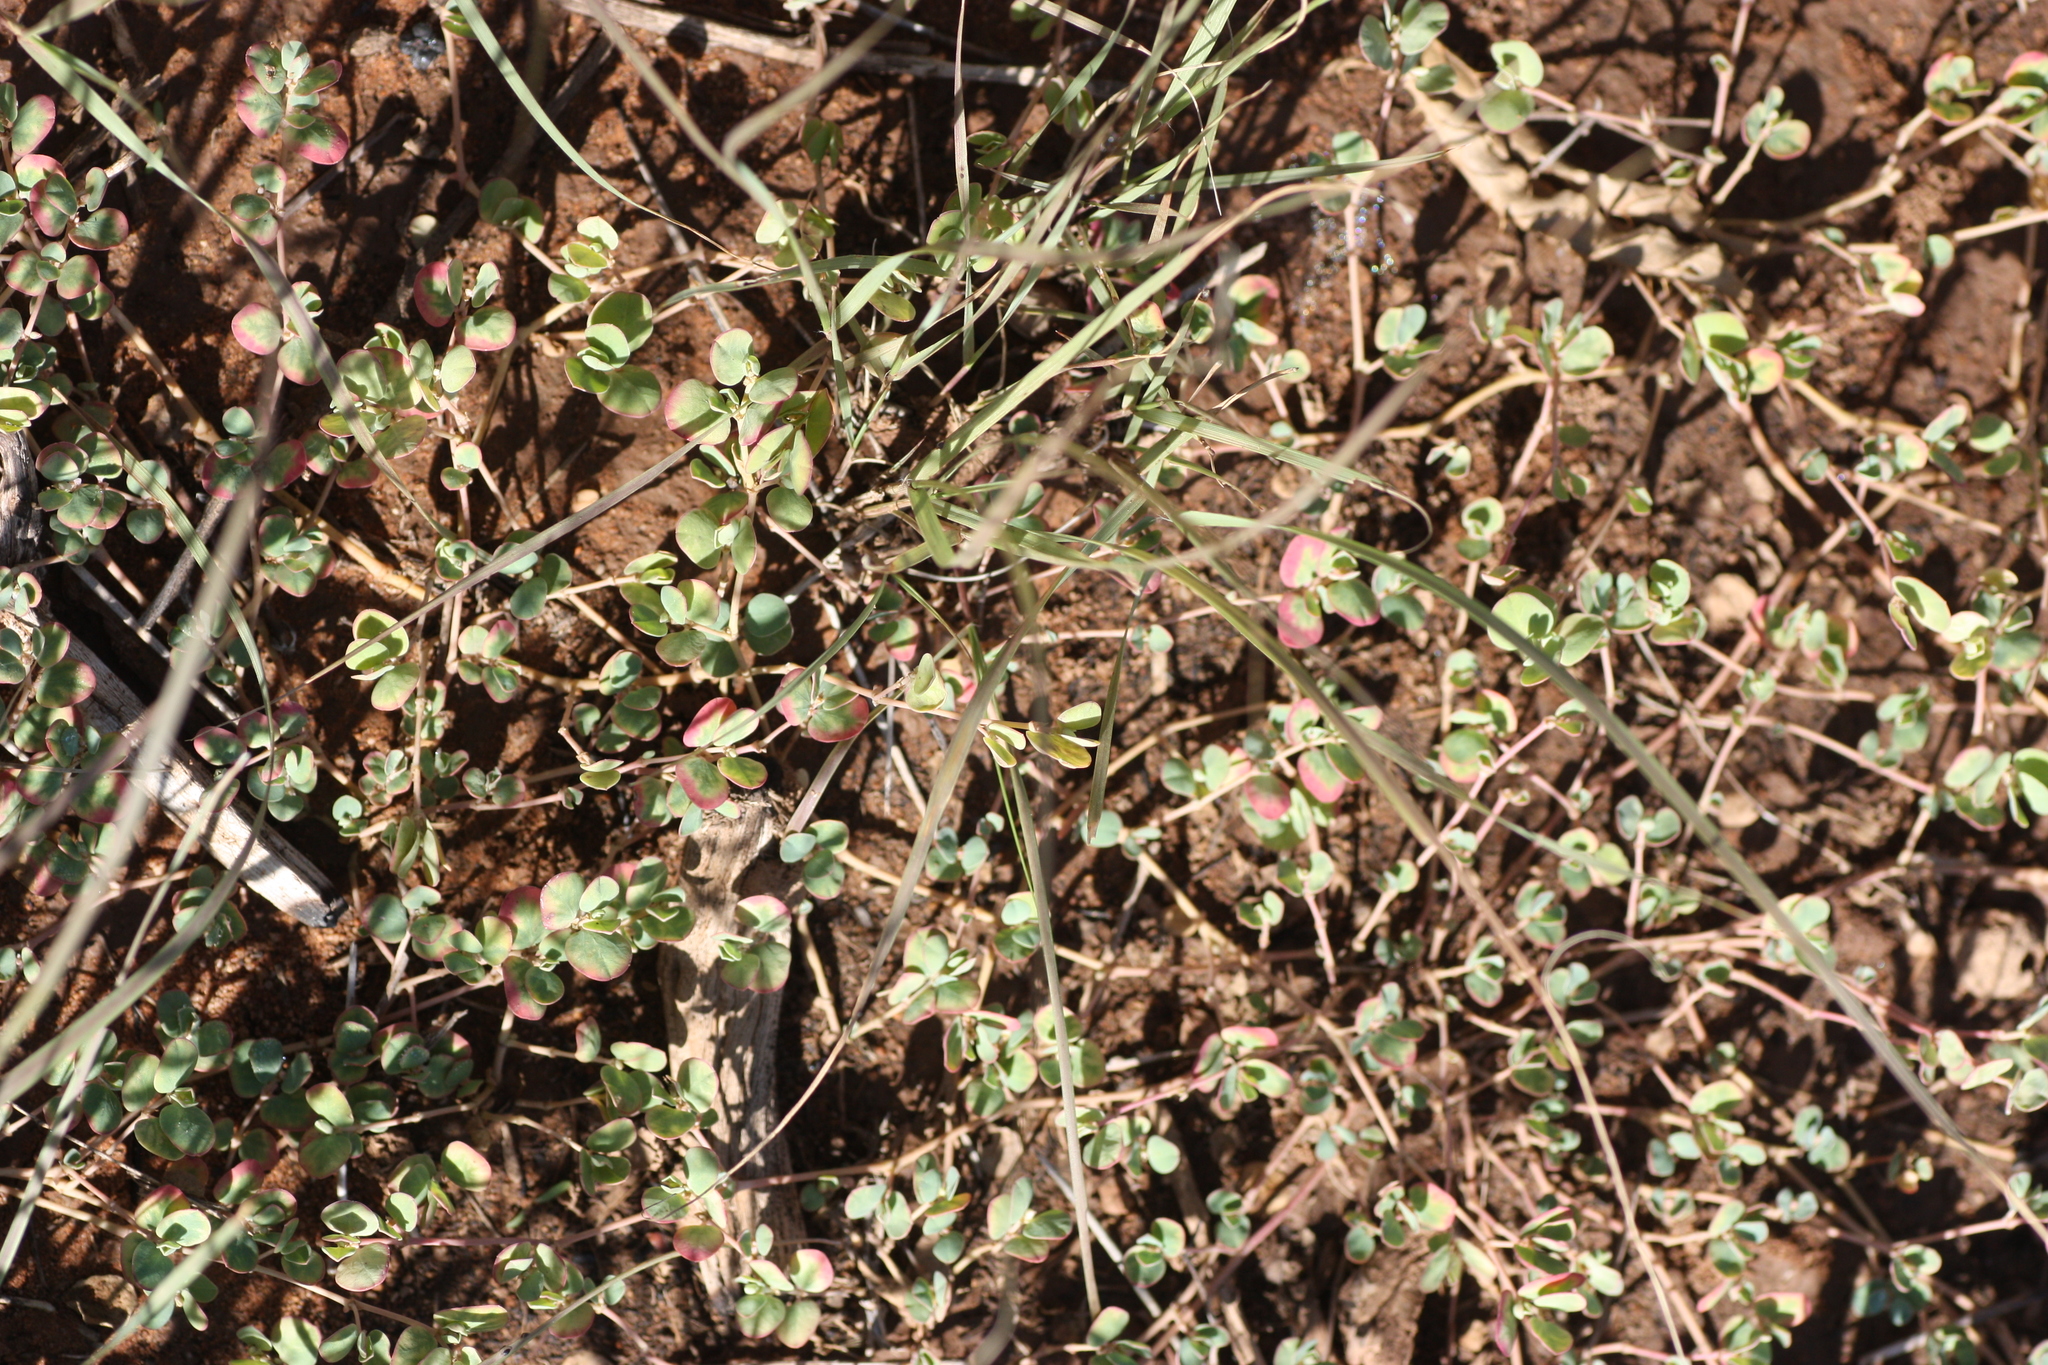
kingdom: Plantae
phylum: Tracheophyta
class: Magnoliopsida
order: Malpighiales
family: Euphorbiaceae
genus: Euphorbia
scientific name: Euphorbia albomarginata
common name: Whitemargin sandmat
